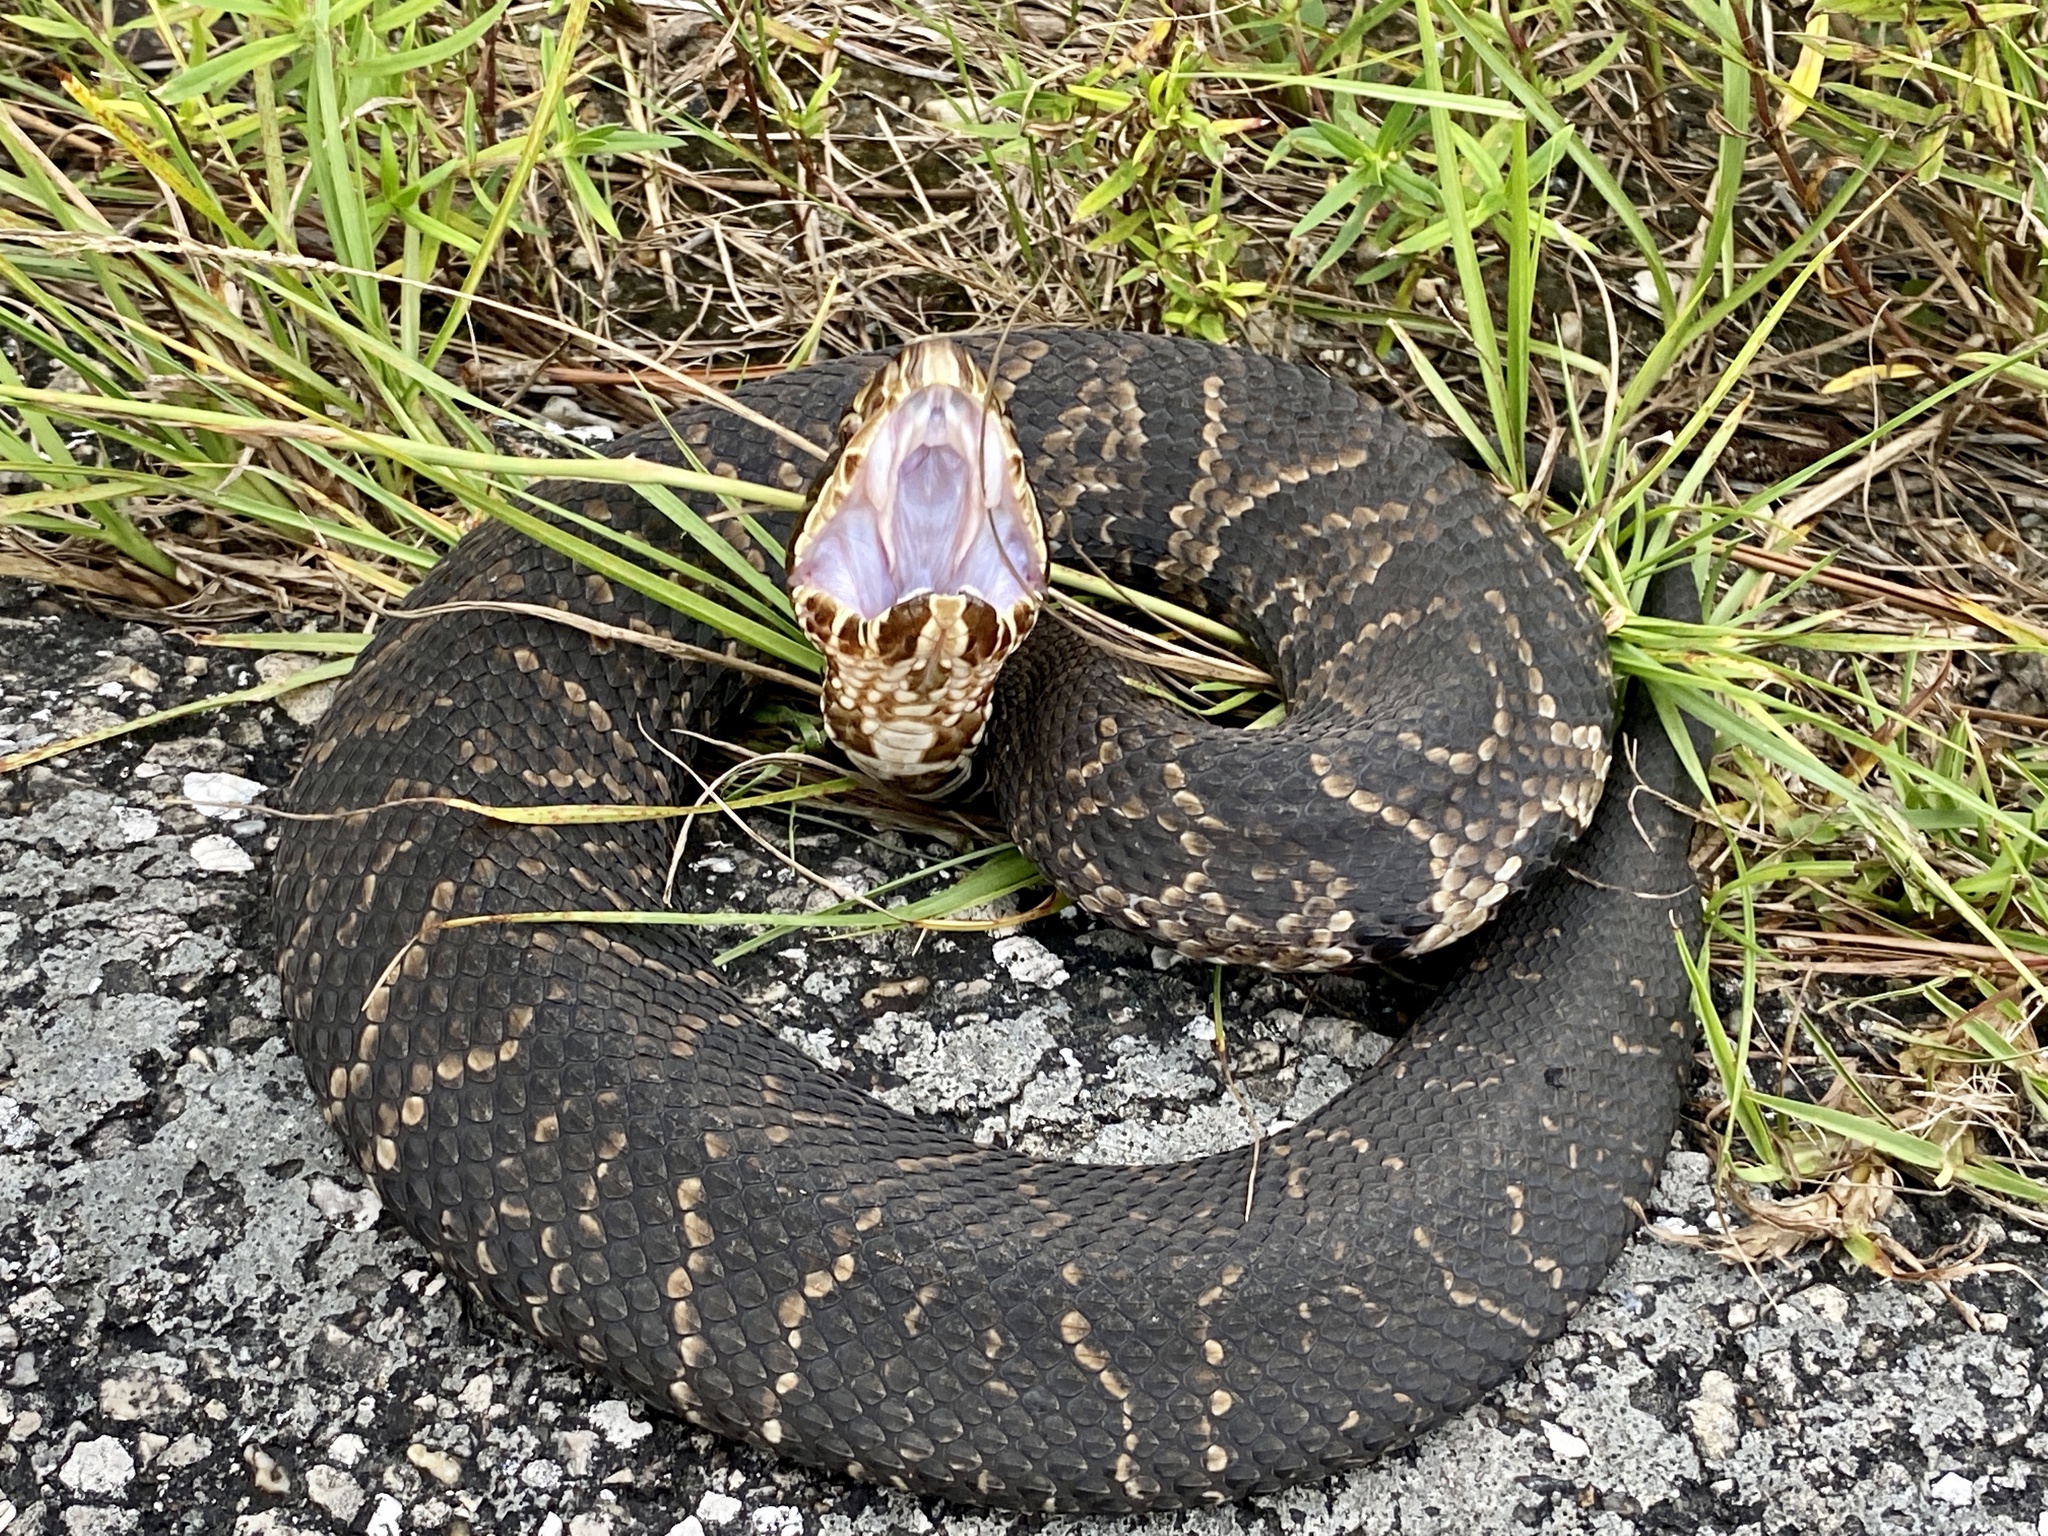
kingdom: Animalia
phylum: Chordata
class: Squamata
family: Viperidae
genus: Agkistrodon
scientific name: Agkistrodon conanti
